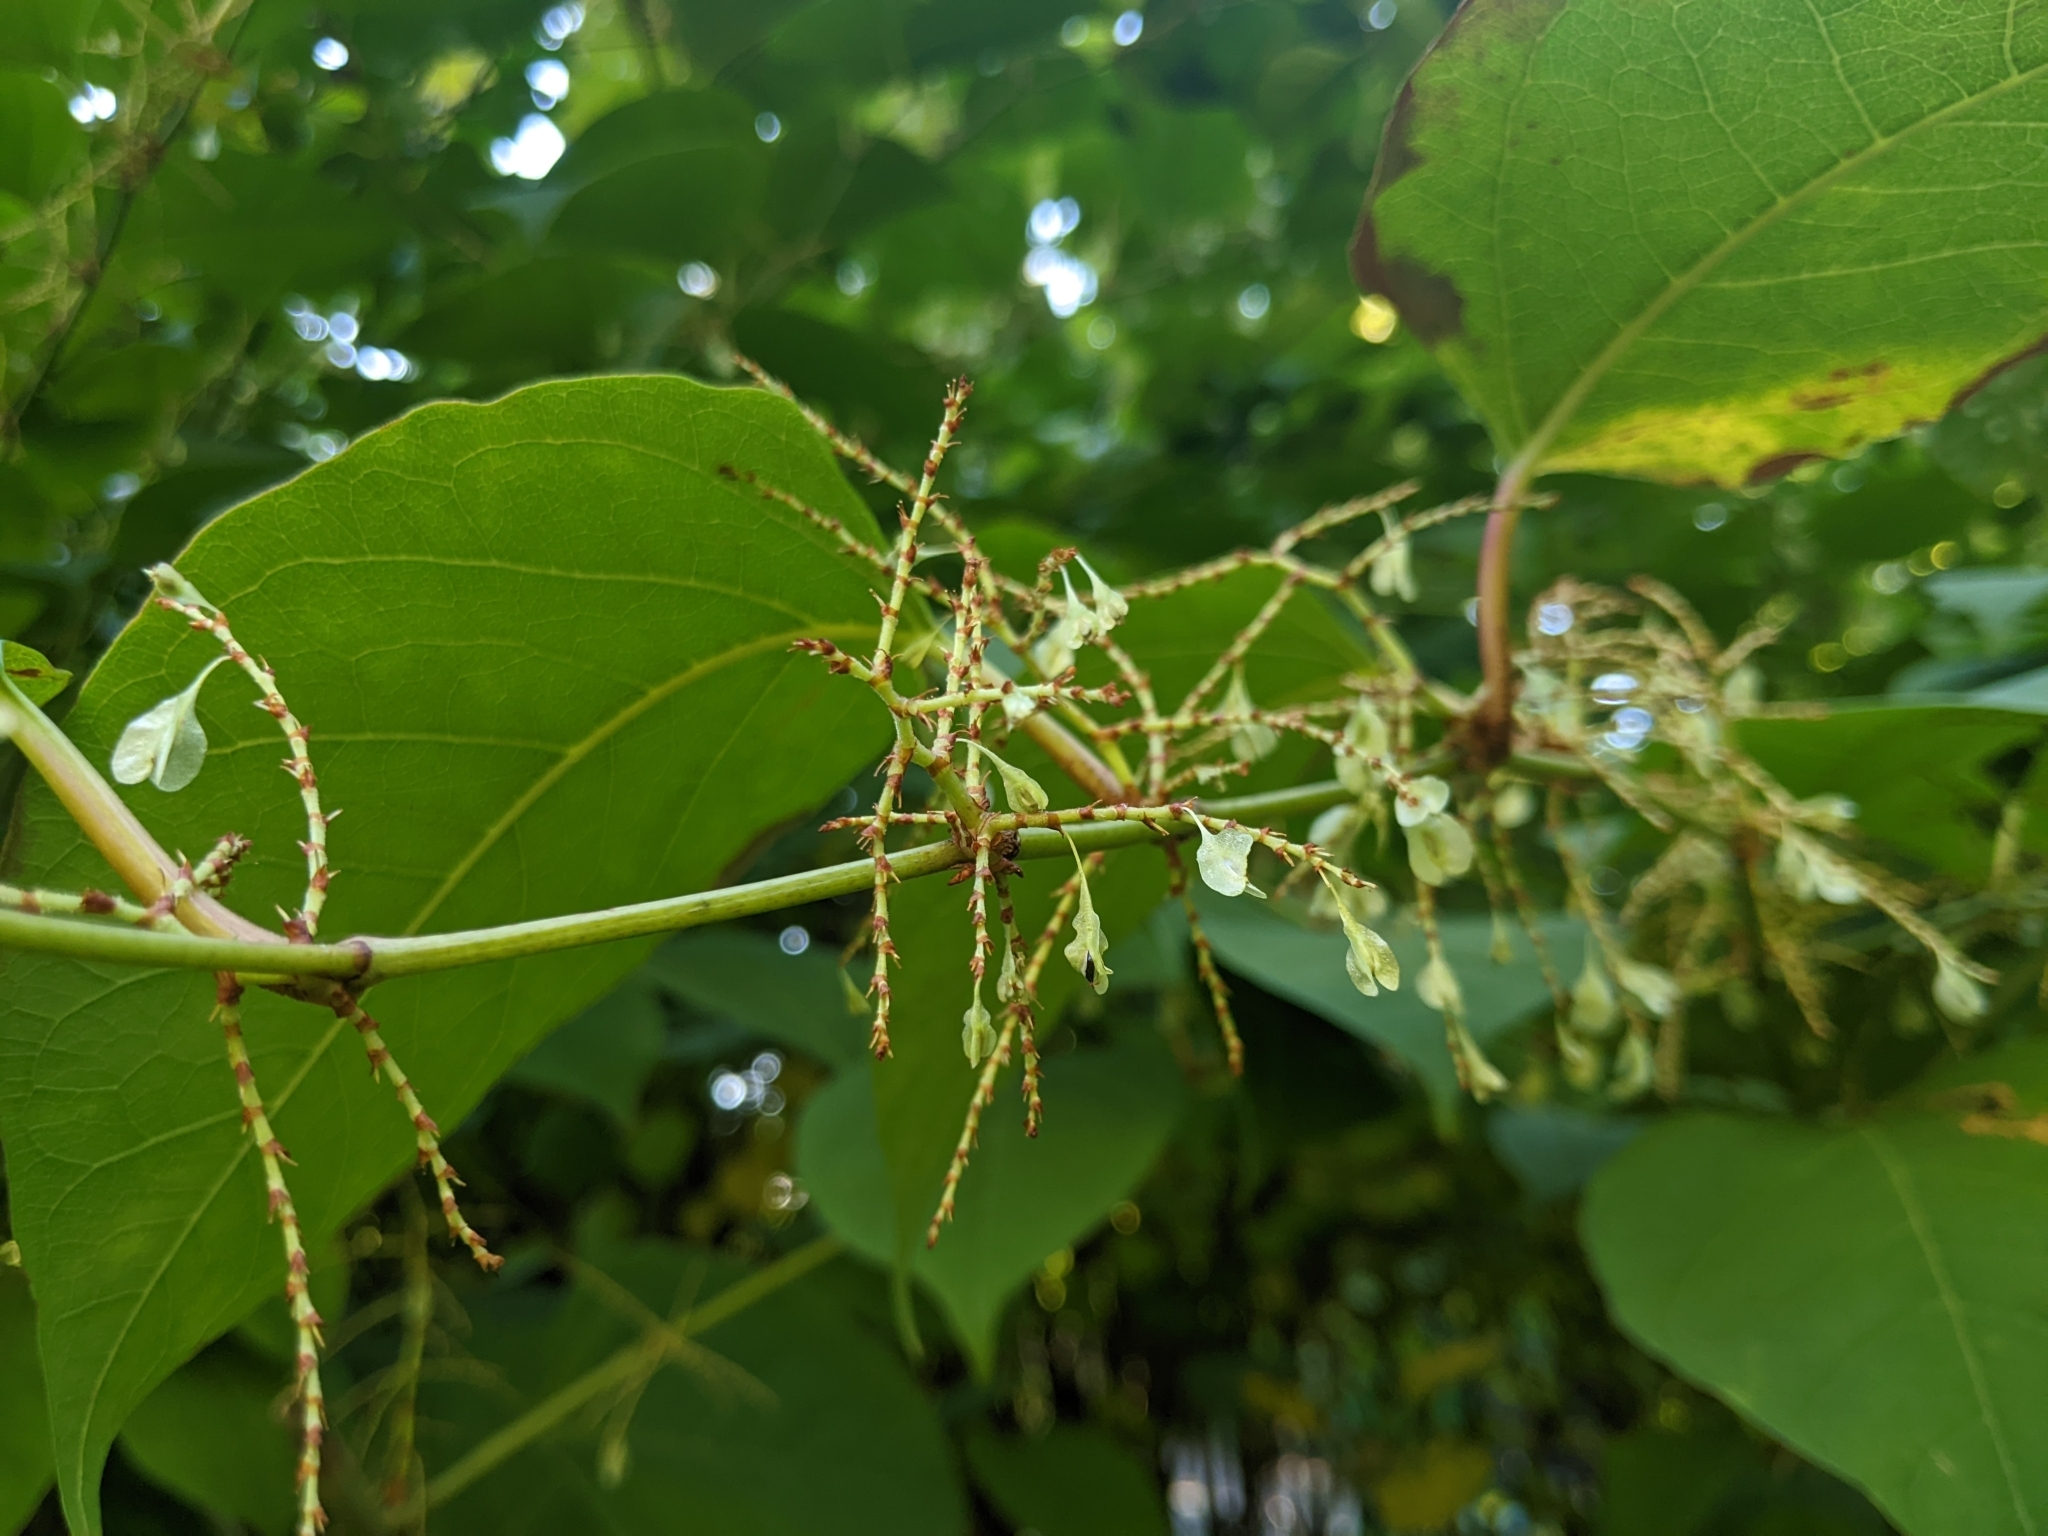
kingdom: Plantae
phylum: Tracheophyta
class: Magnoliopsida
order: Caryophyllales
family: Polygonaceae
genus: Reynoutria
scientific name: Reynoutria japonica
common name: Japanese knotweed
